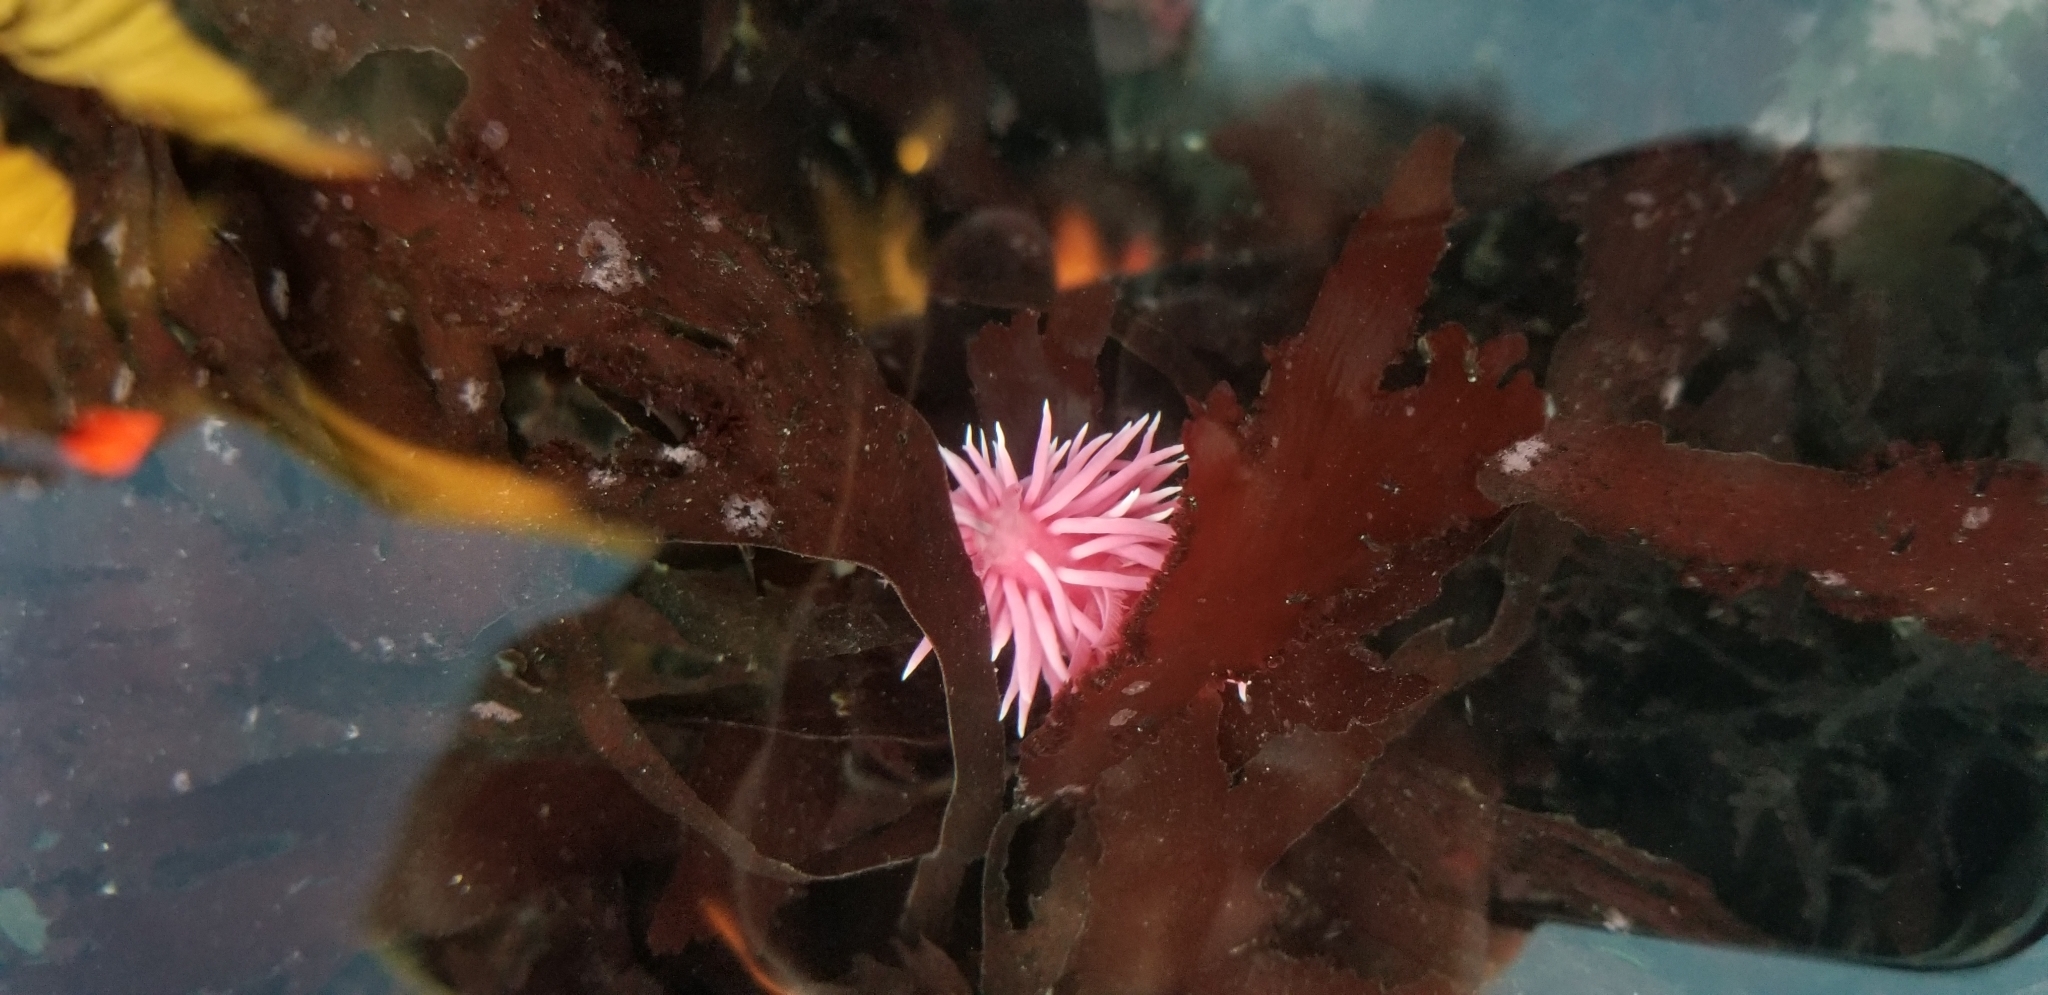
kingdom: Animalia
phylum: Mollusca
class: Gastropoda
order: Nudibranchia
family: Goniodorididae
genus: Okenia
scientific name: Okenia
